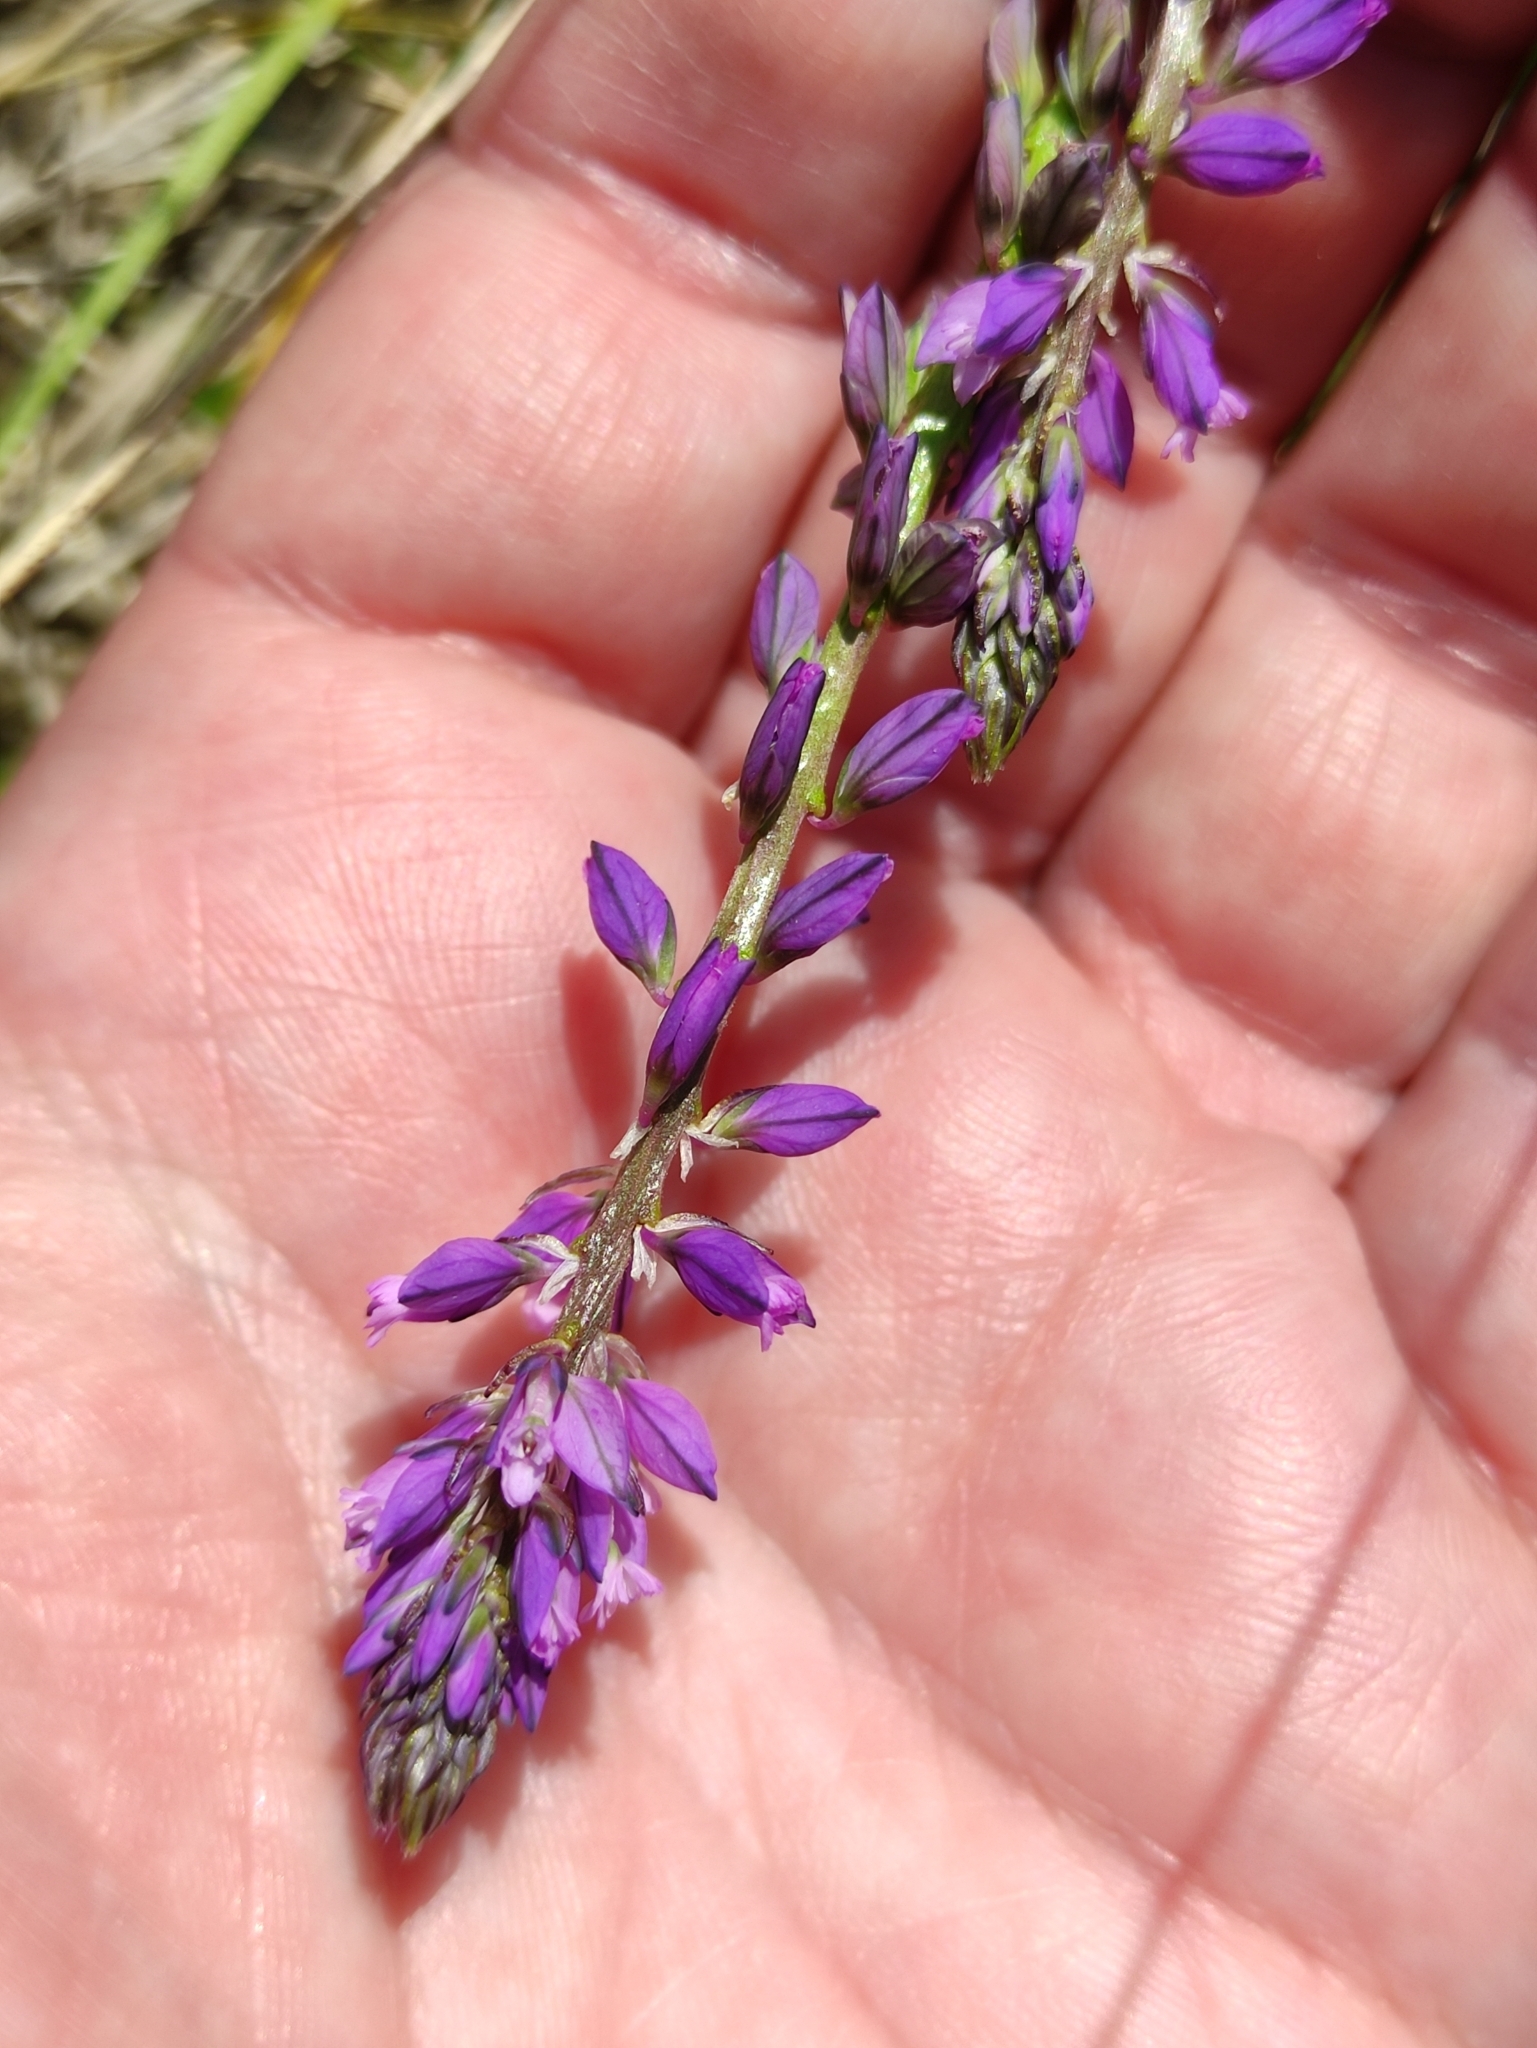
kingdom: Plantae
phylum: Tracheophyta
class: Magnoliopsida
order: Fabales
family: Polygalaceae
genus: Polygala
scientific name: Polygala comosa
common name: Tufted milkwort
